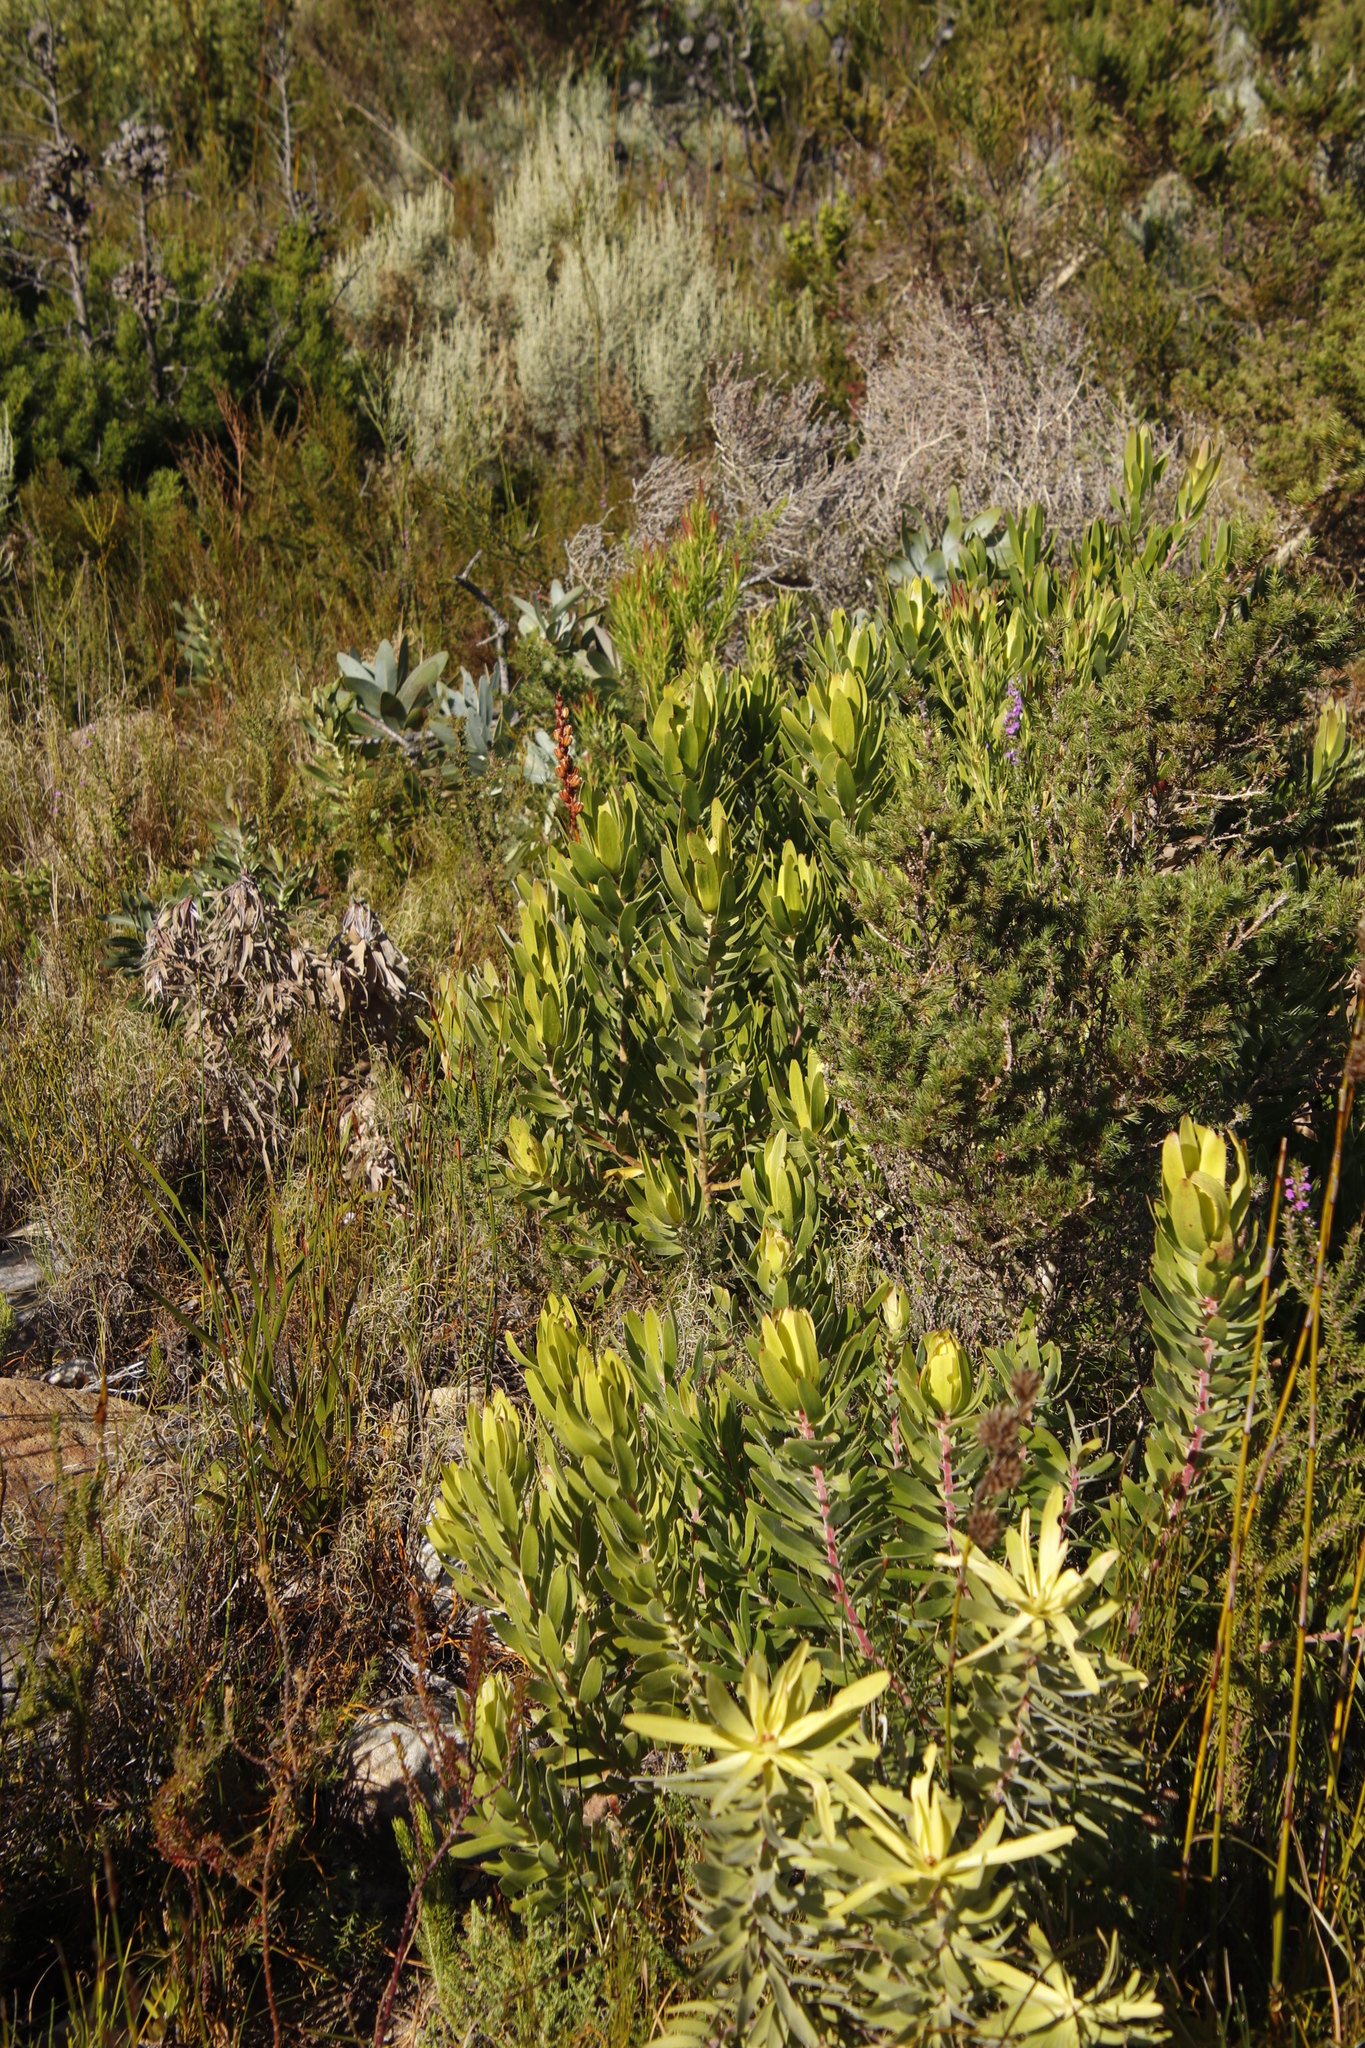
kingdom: Plantae
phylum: Tracheophyta
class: Magnoliopsida
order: Proteales
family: Proteaceae
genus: Leucadendron
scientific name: Leucadendron laureolum
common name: Golden sunshinebush
